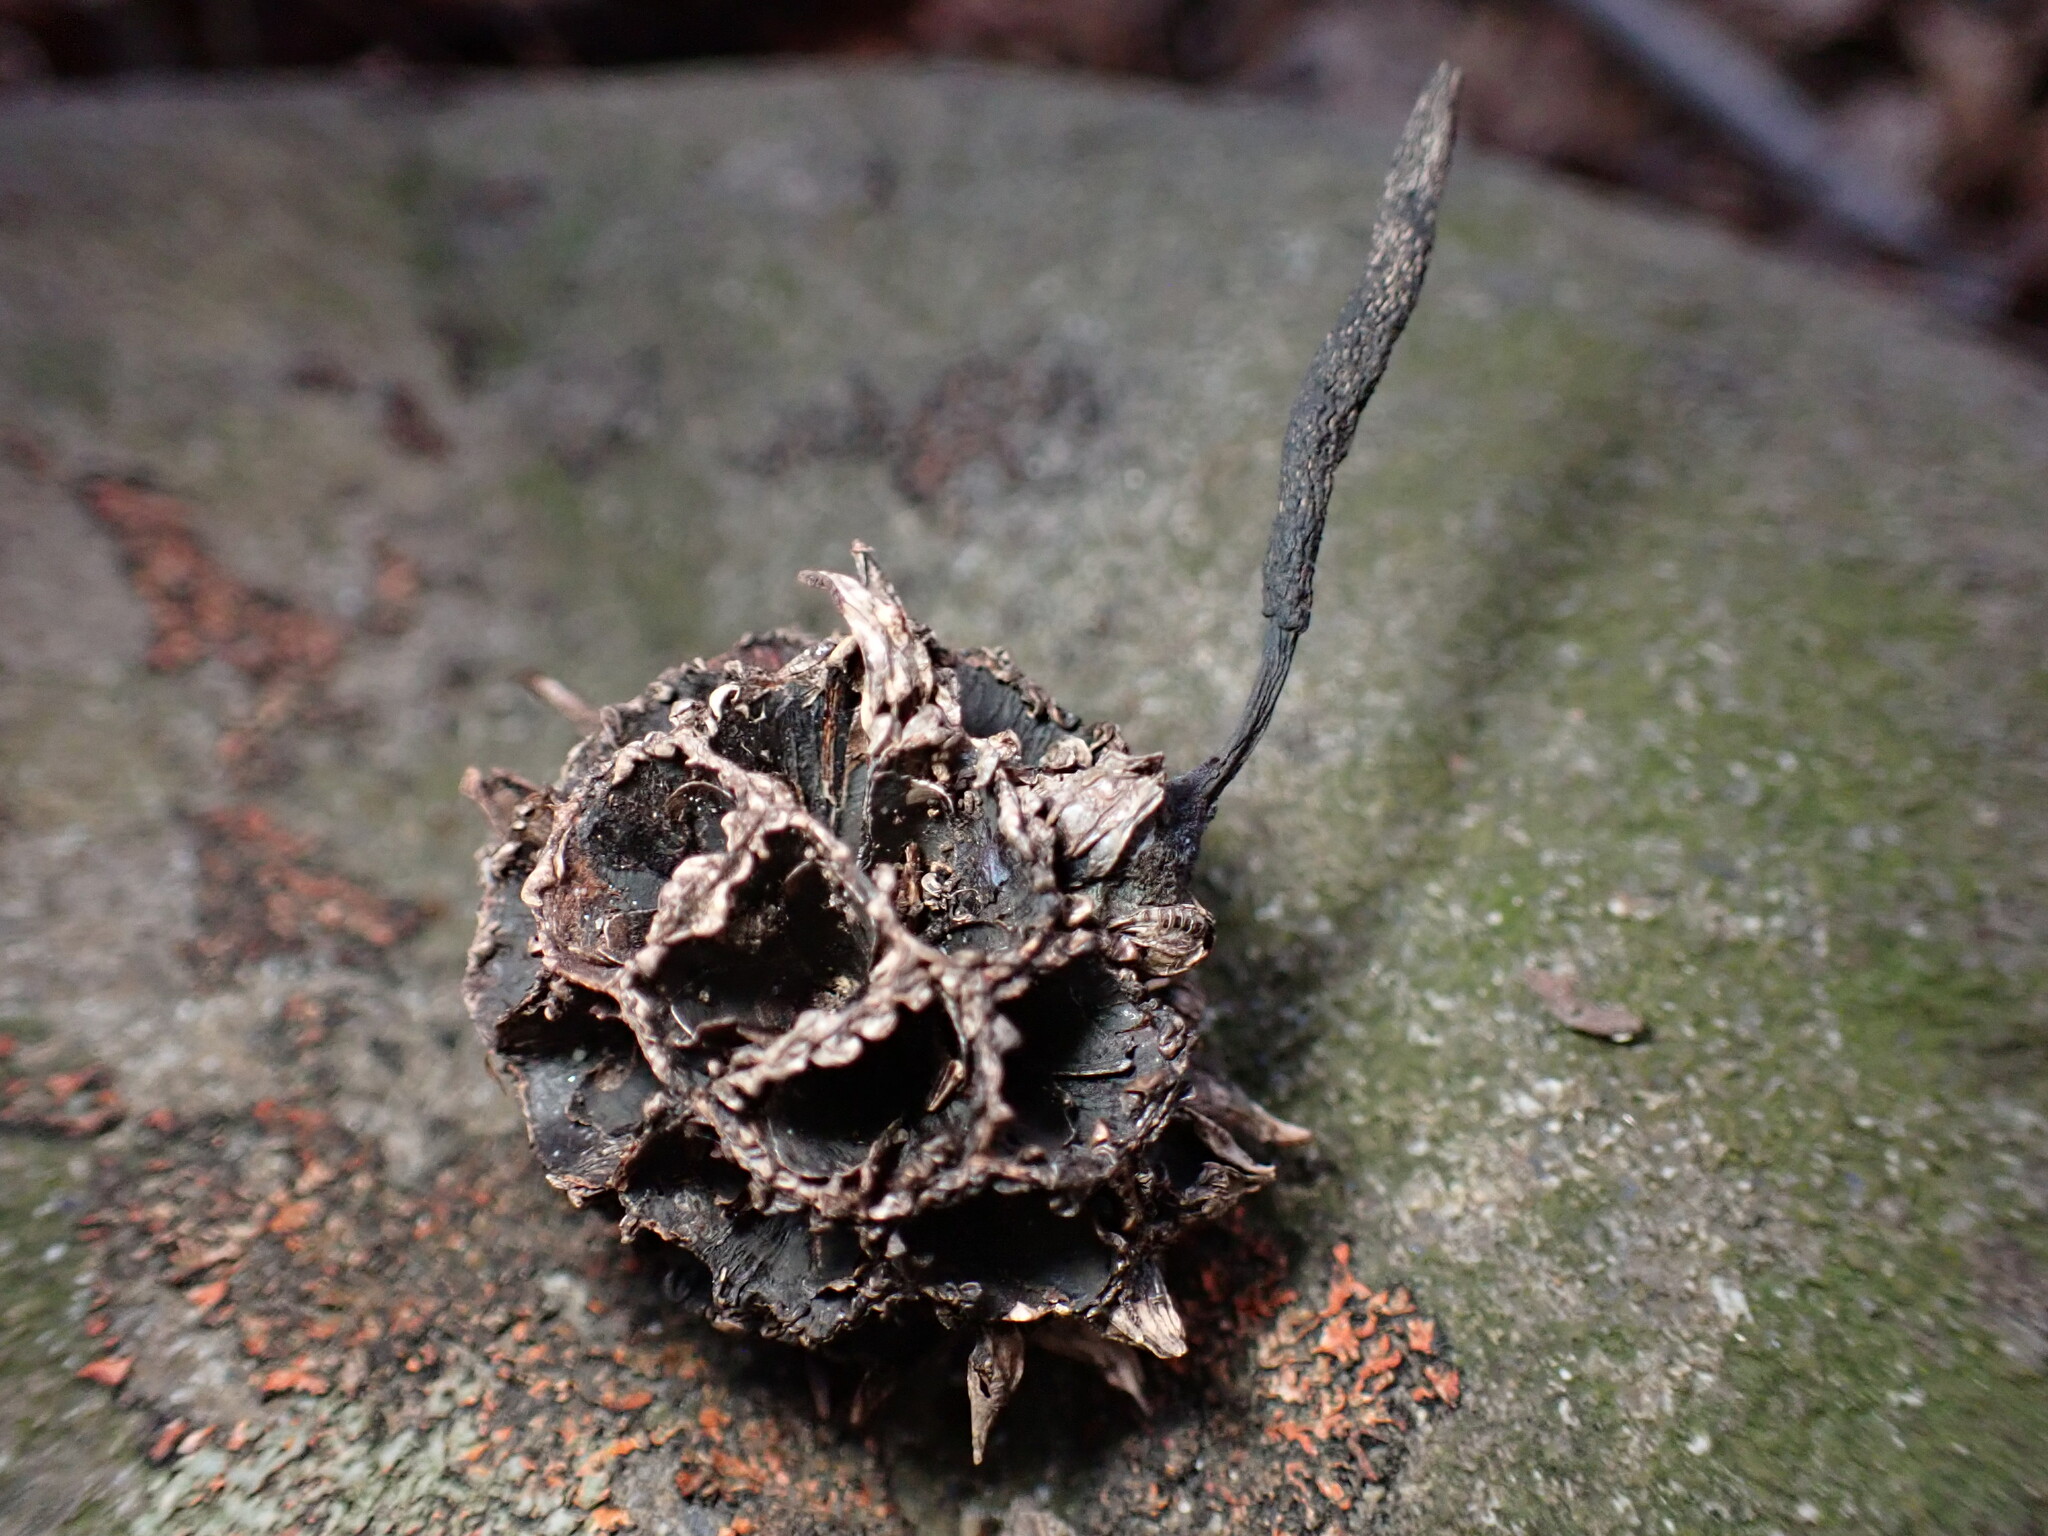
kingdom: Fungi
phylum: Ascomycota
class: Sordariomycetes
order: Xylariales
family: Xylariaceae
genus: Xylaria
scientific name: Xylaria liquidambaris
